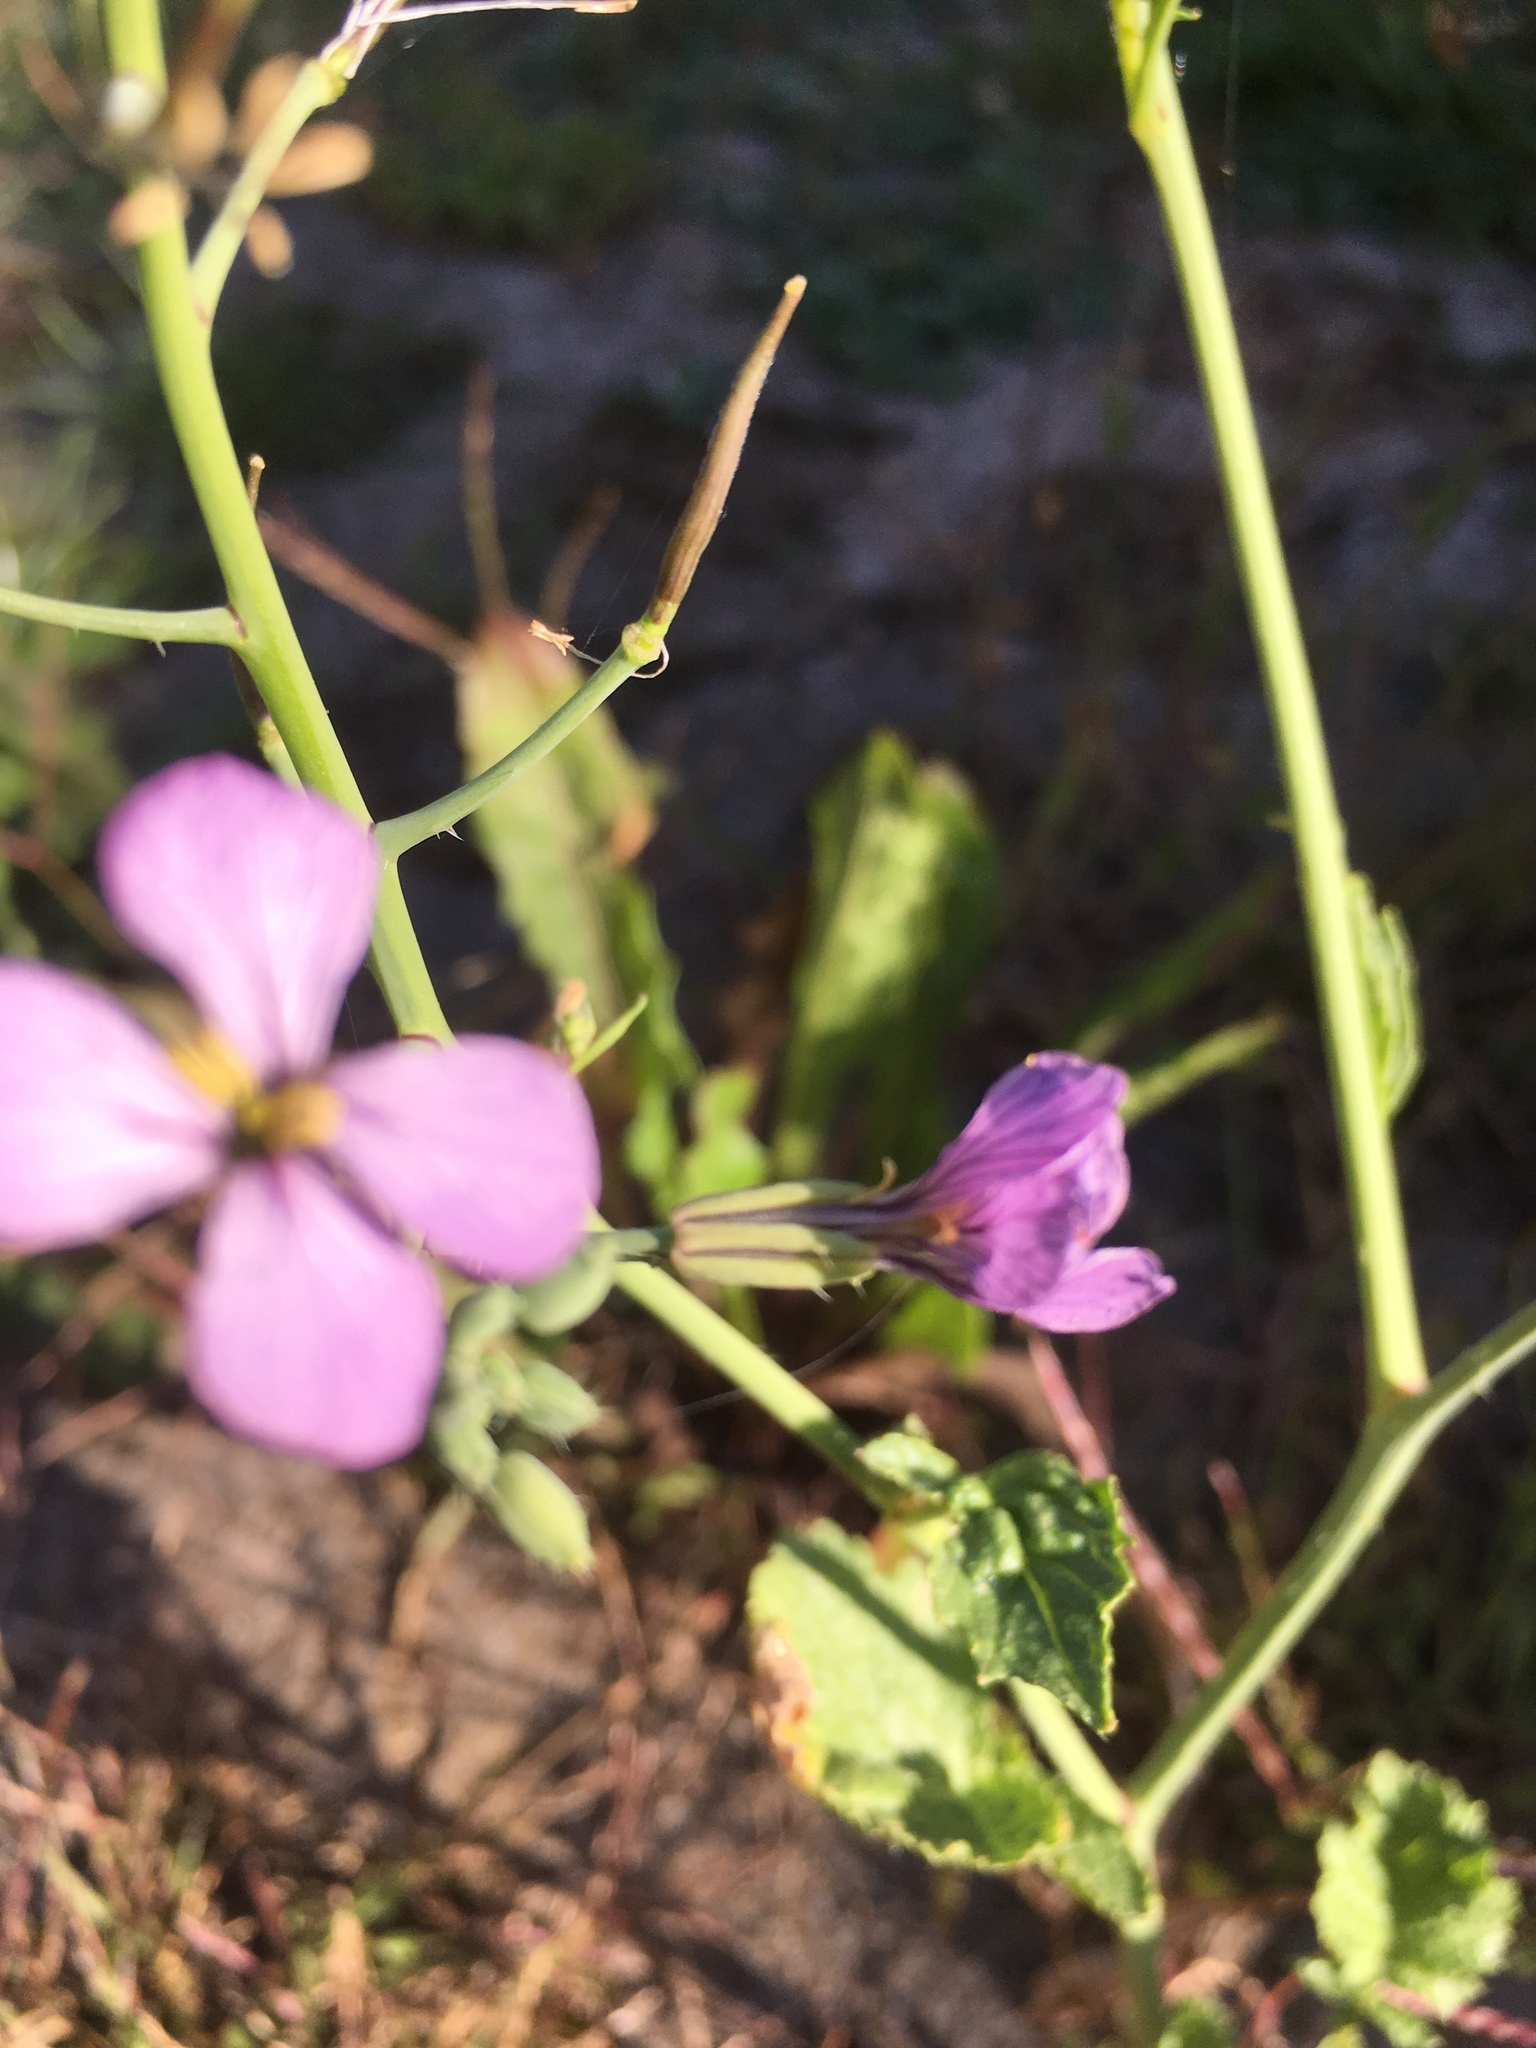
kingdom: Plantae
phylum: Tracheophyta
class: Magnoliopsida
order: Brassicales
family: Brassicaceae
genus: Raphanus
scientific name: Raphanus sativus
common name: Cultivated radish
